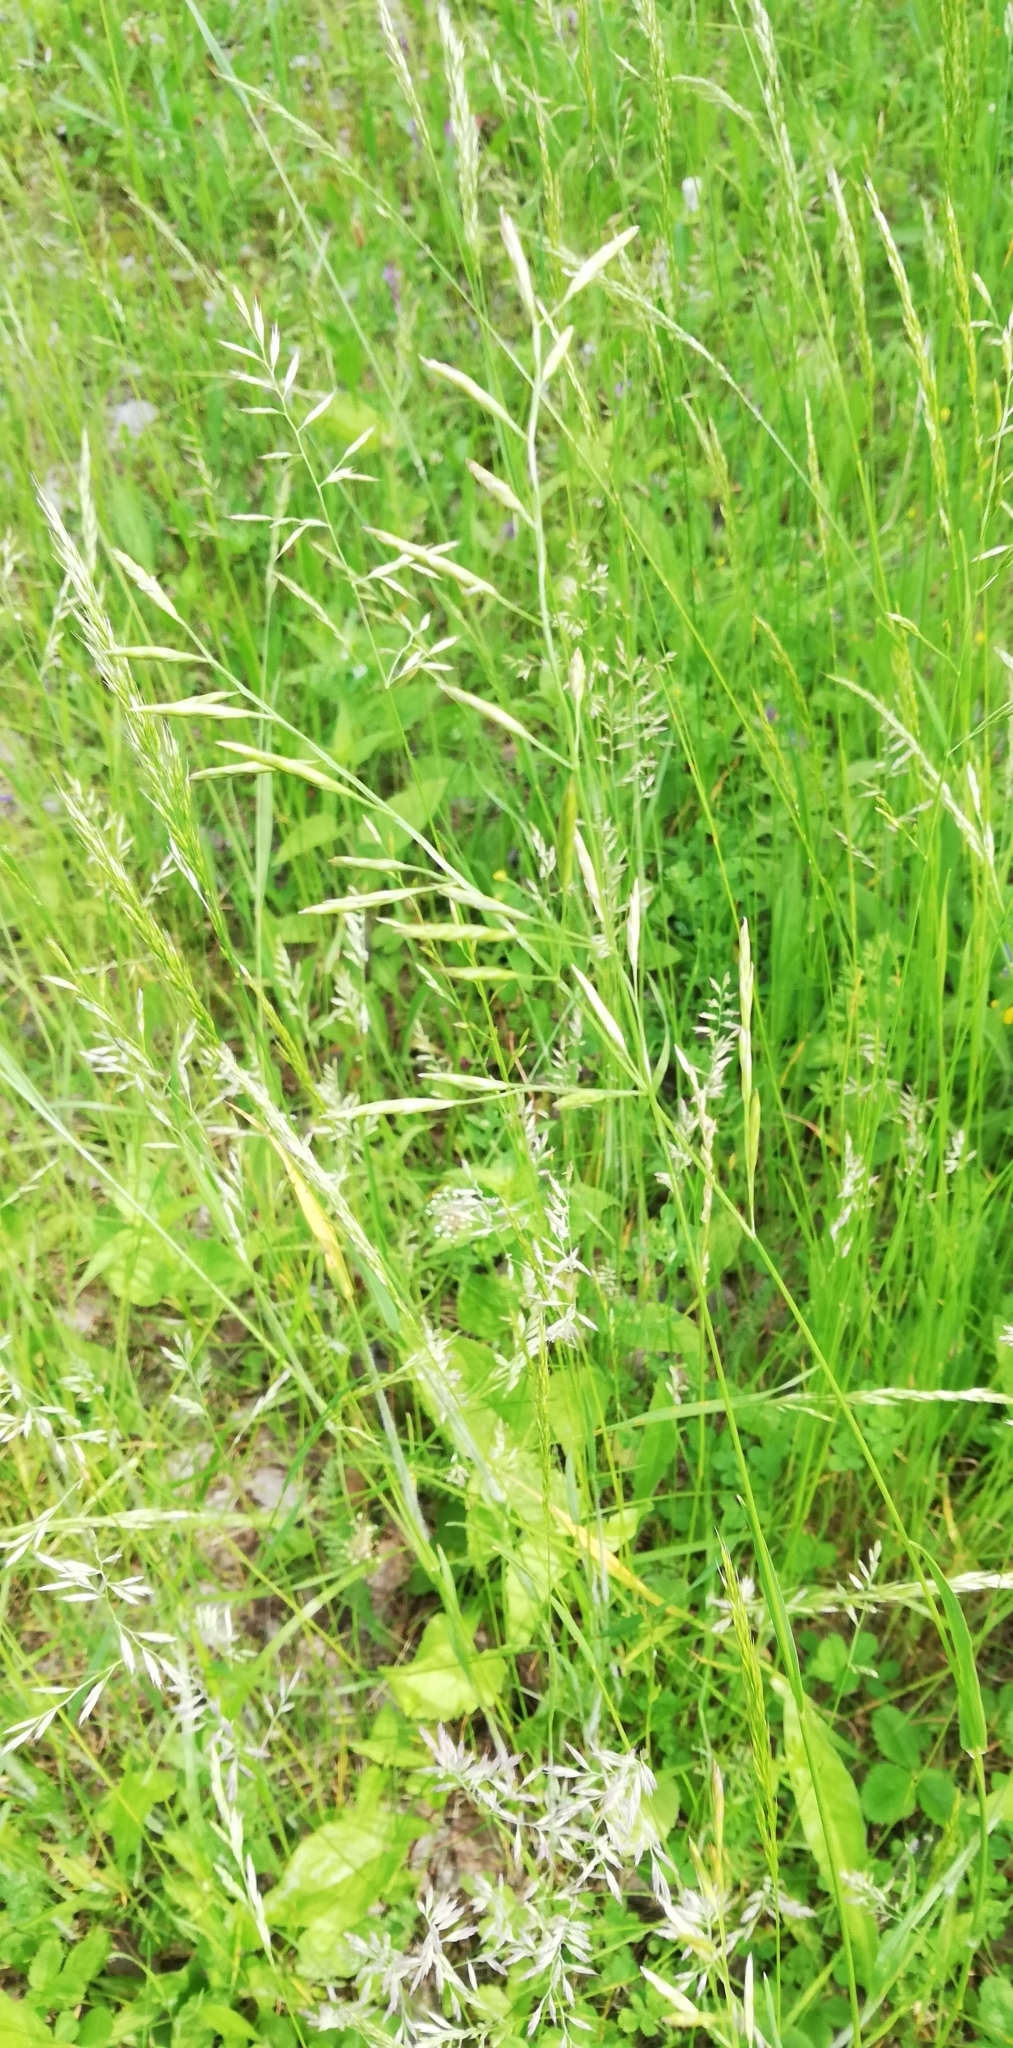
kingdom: Plantae
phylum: Tracheophyta
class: Liliopsida
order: Poales
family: Poaceae
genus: Lolium
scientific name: Lolium pratense
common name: Dover grass
